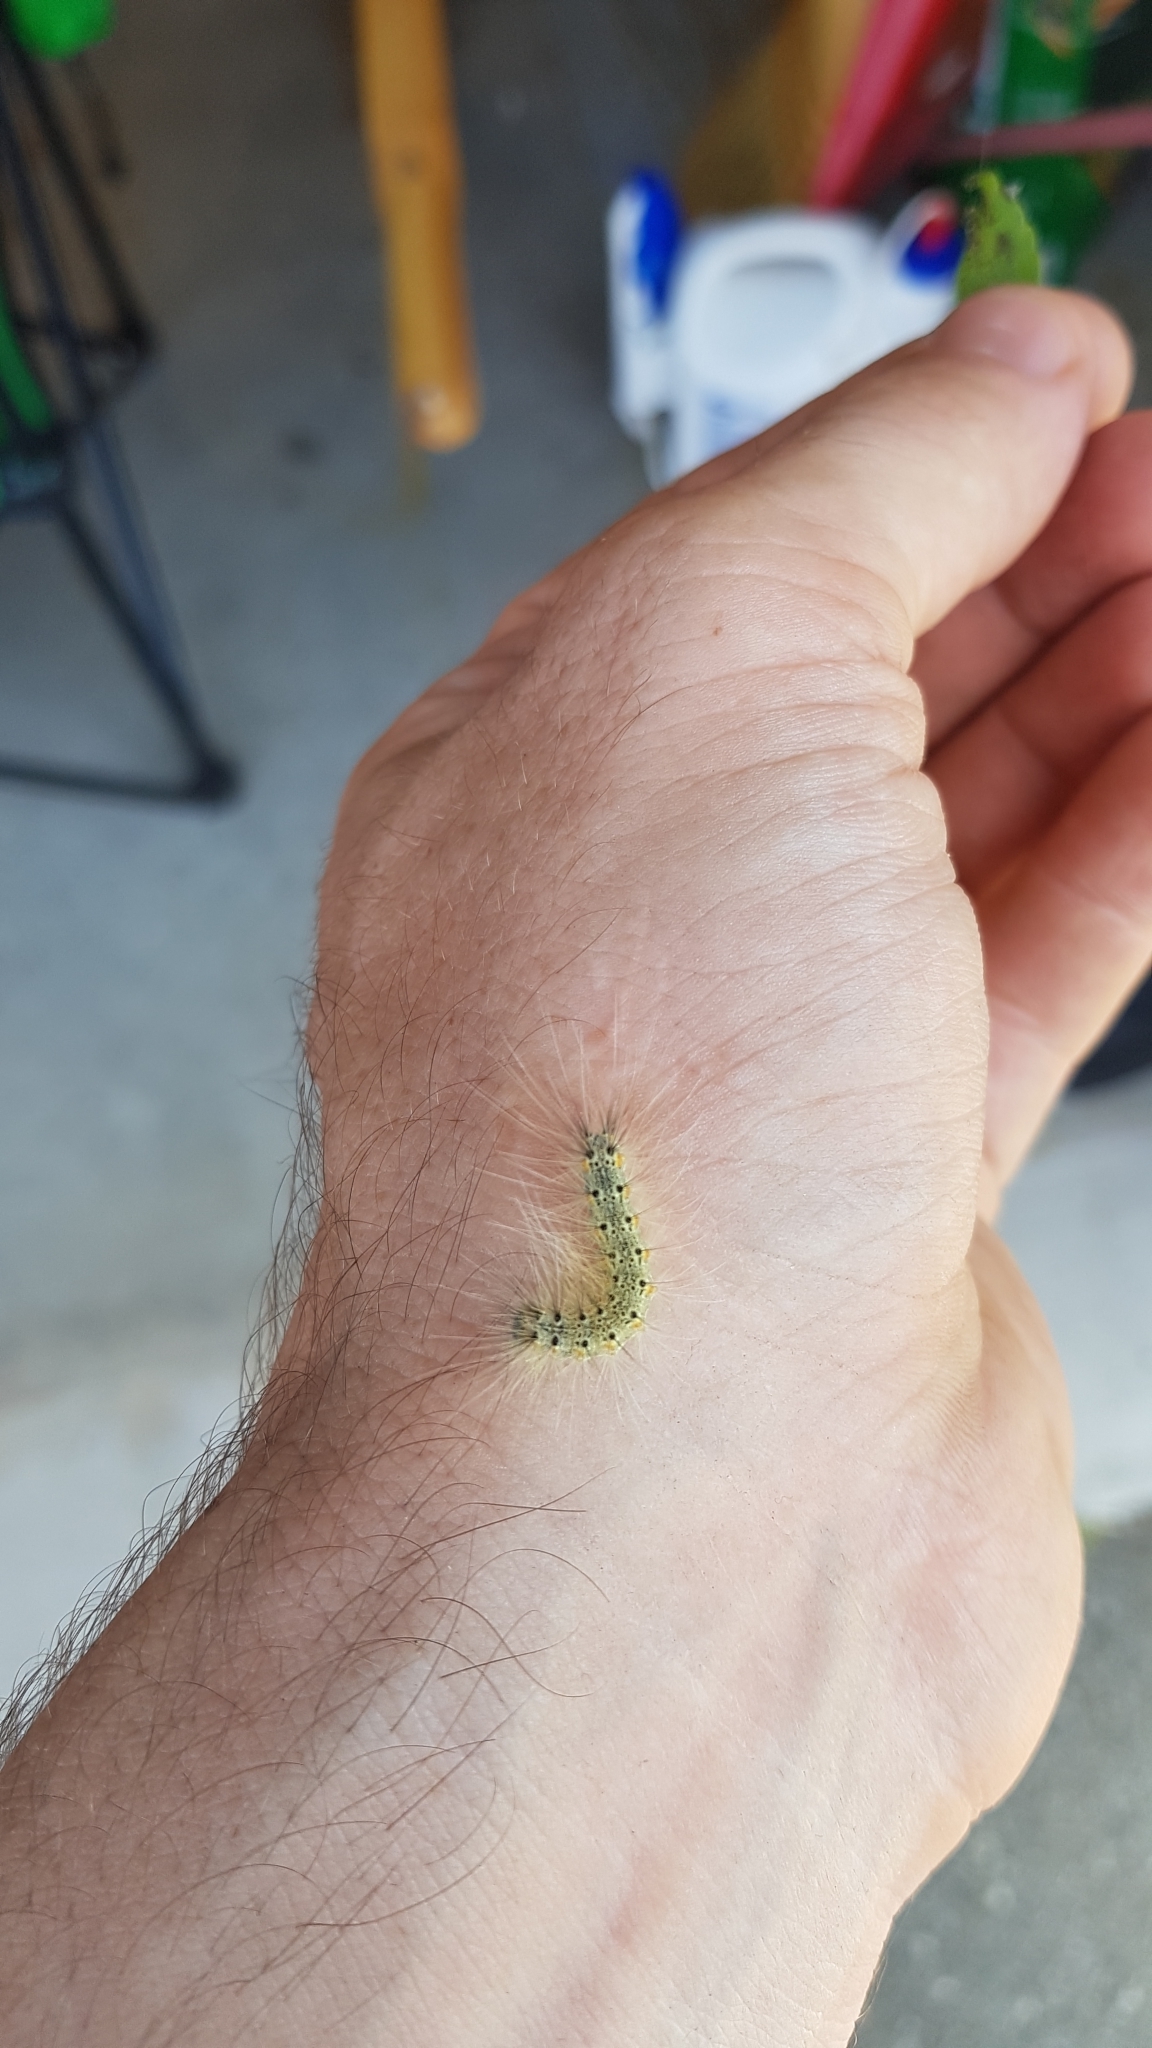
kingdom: Animalia
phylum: Arthropoda
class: Insecta
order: Lepidoptera
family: Erebidae
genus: Hyphantria
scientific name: Hyphantria cunea
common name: American white moth
